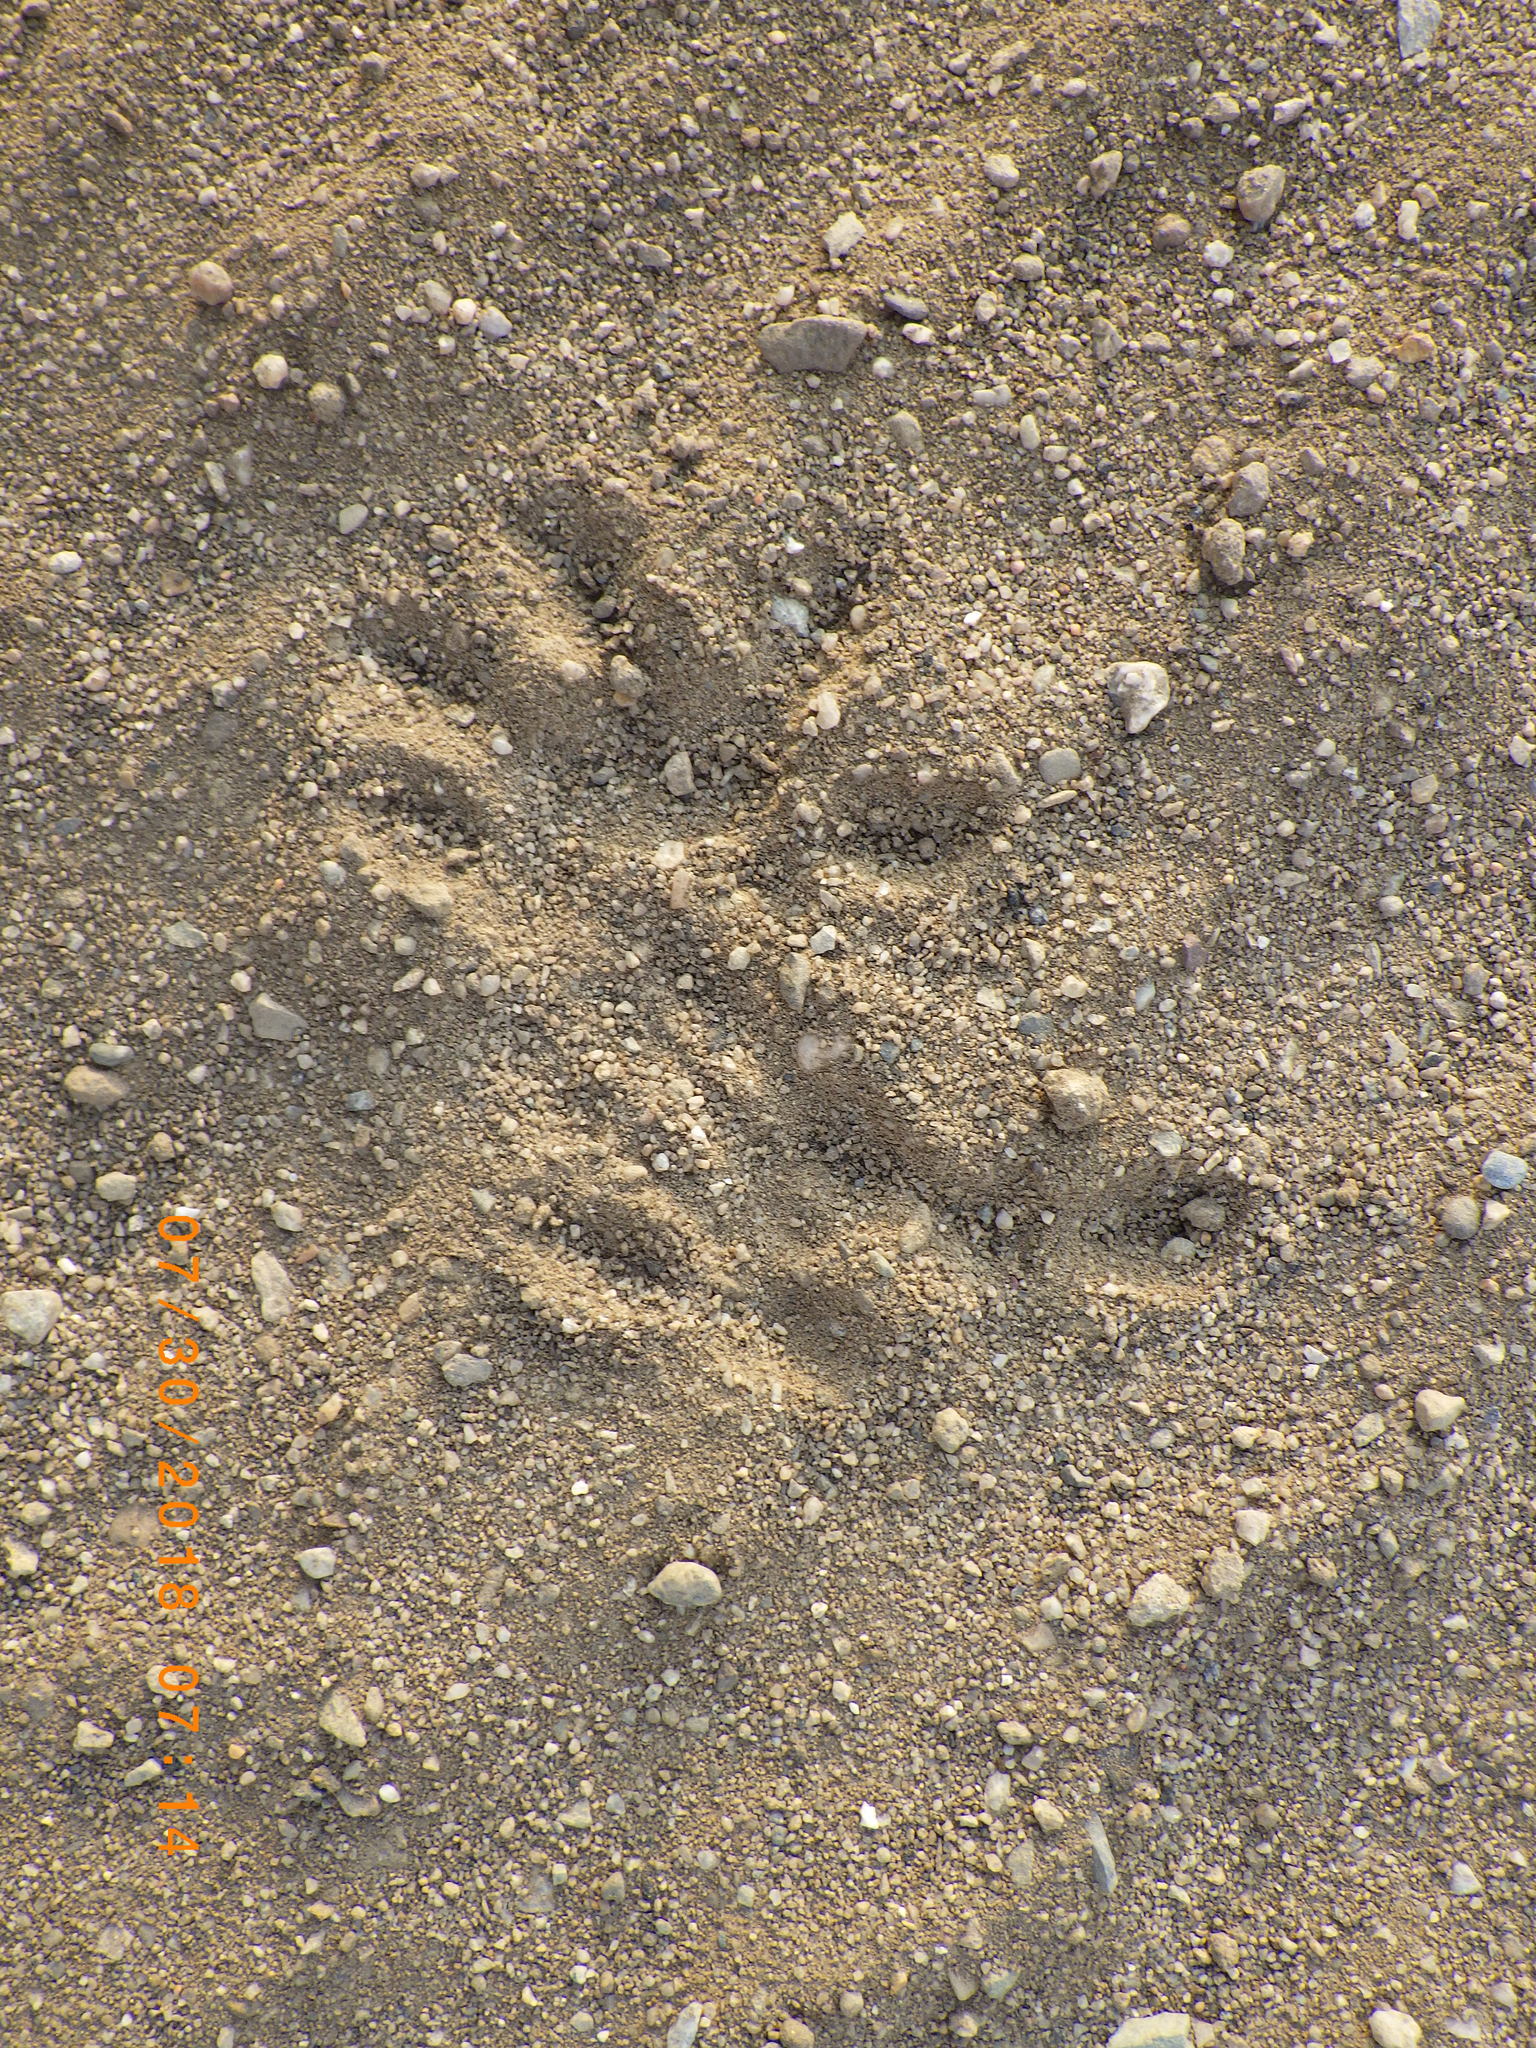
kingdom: Animalia
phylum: Chordata
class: Mammalia
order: Didelphimorphia
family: Didelphidae
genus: Didelphis
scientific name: Didelphis virginiana
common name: Virginia opossum
